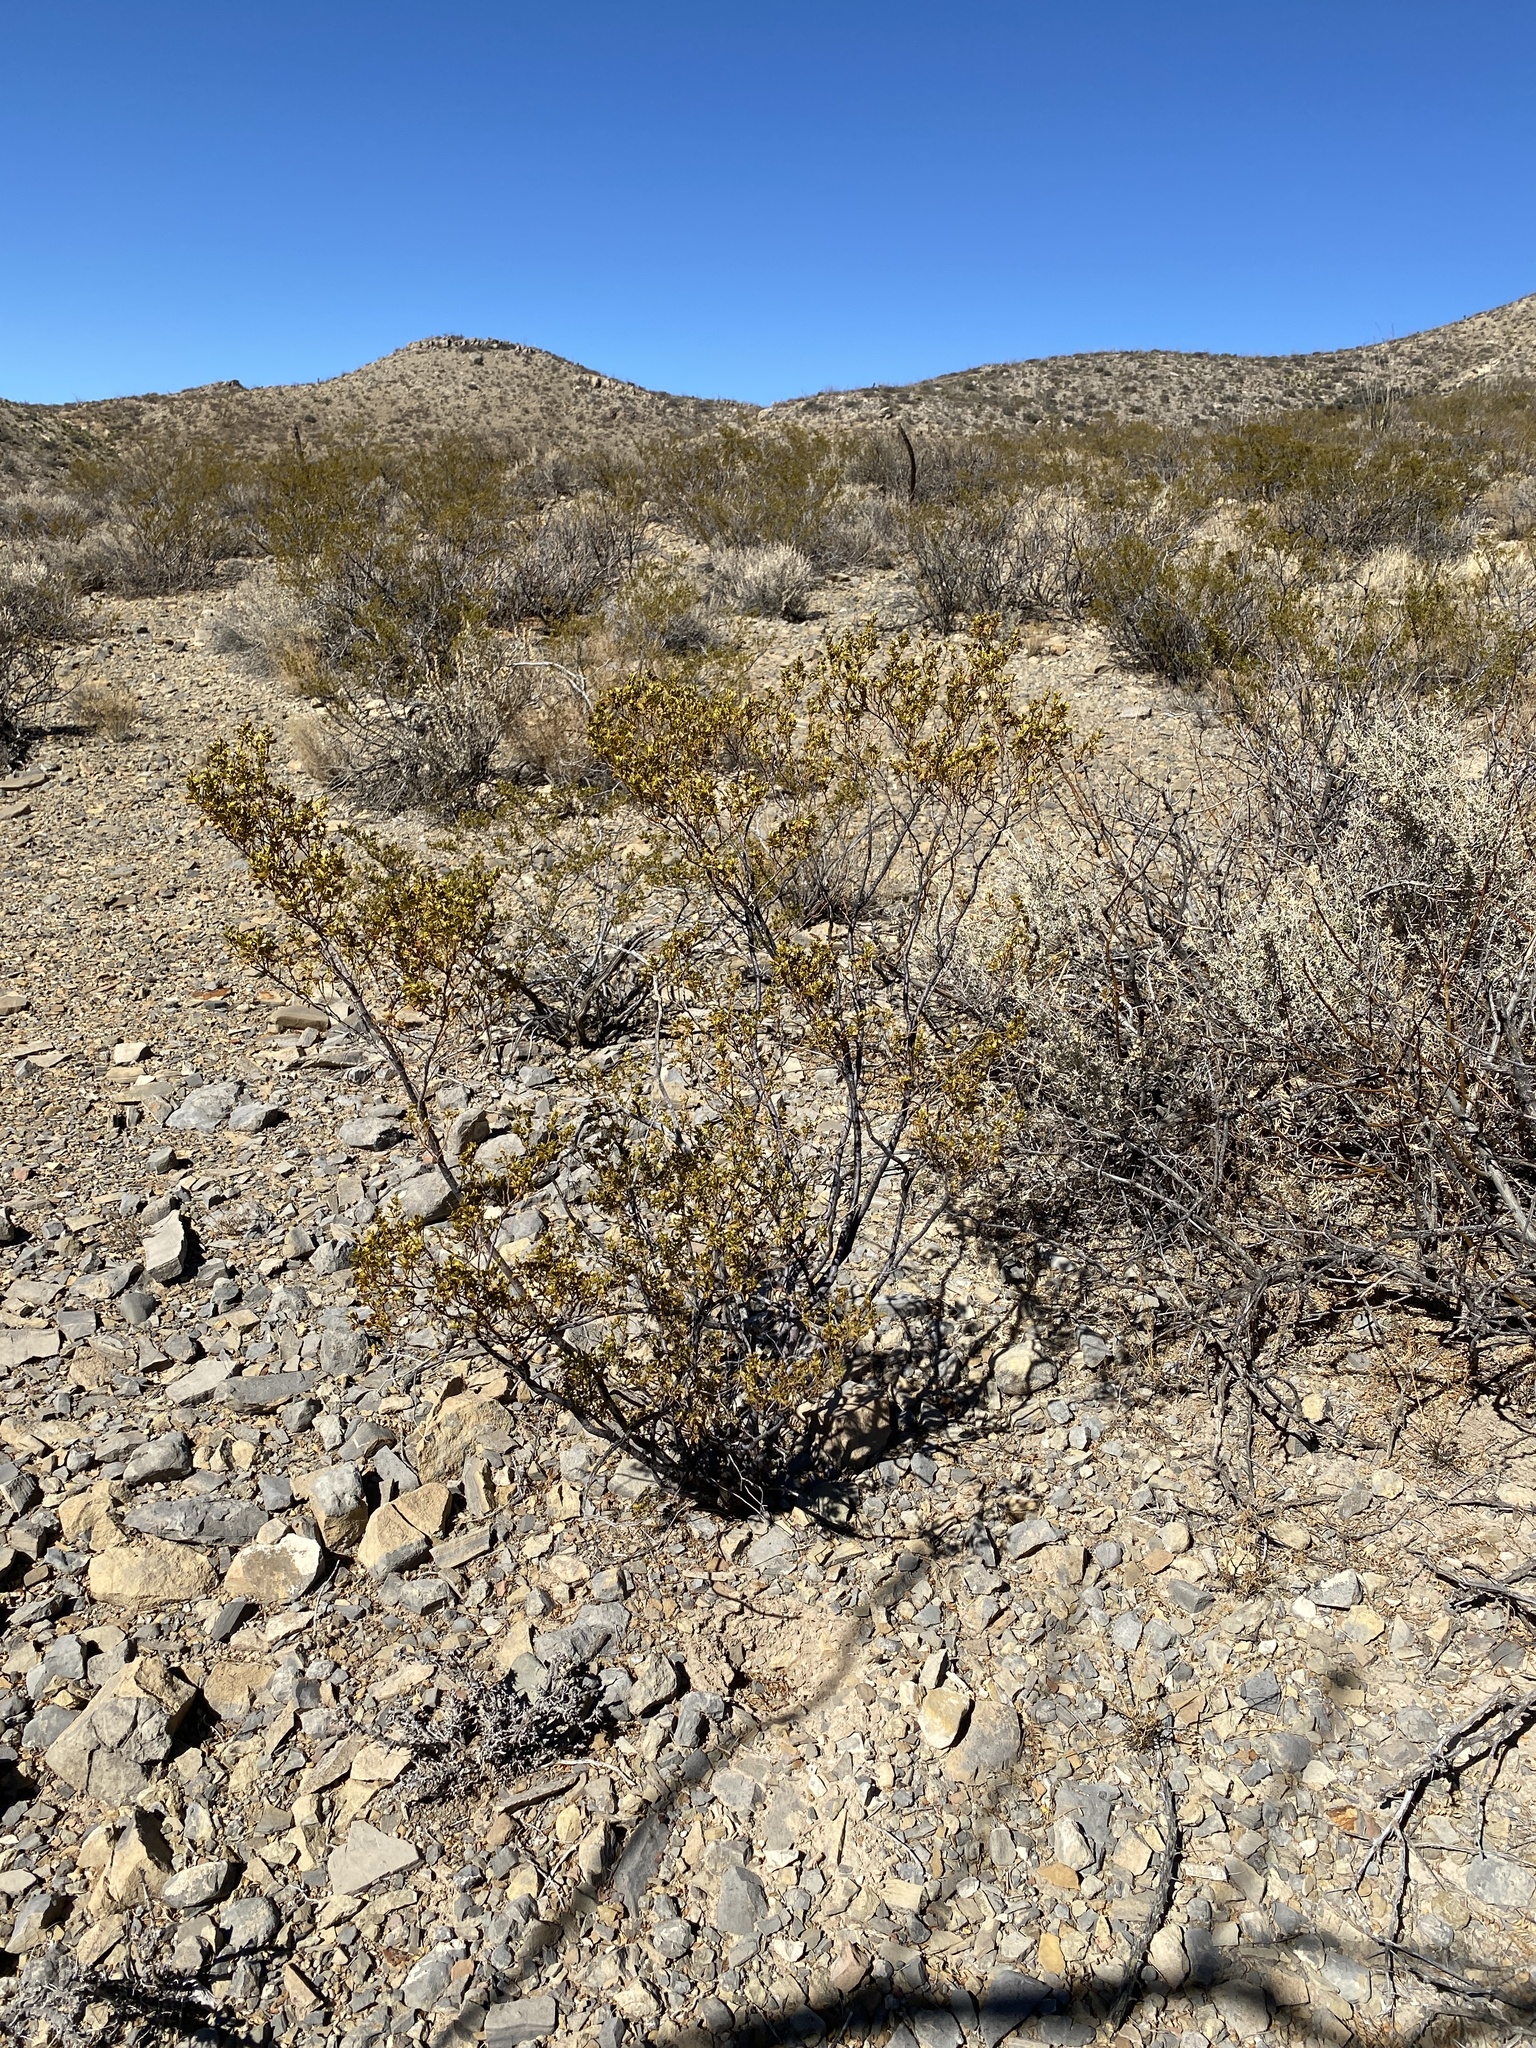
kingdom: Plantae
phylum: Tracheophyta
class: Magnoliopsida
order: Zygophyllales
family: Zygophyllaceae
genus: Larrea
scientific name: Larrea tridentata
